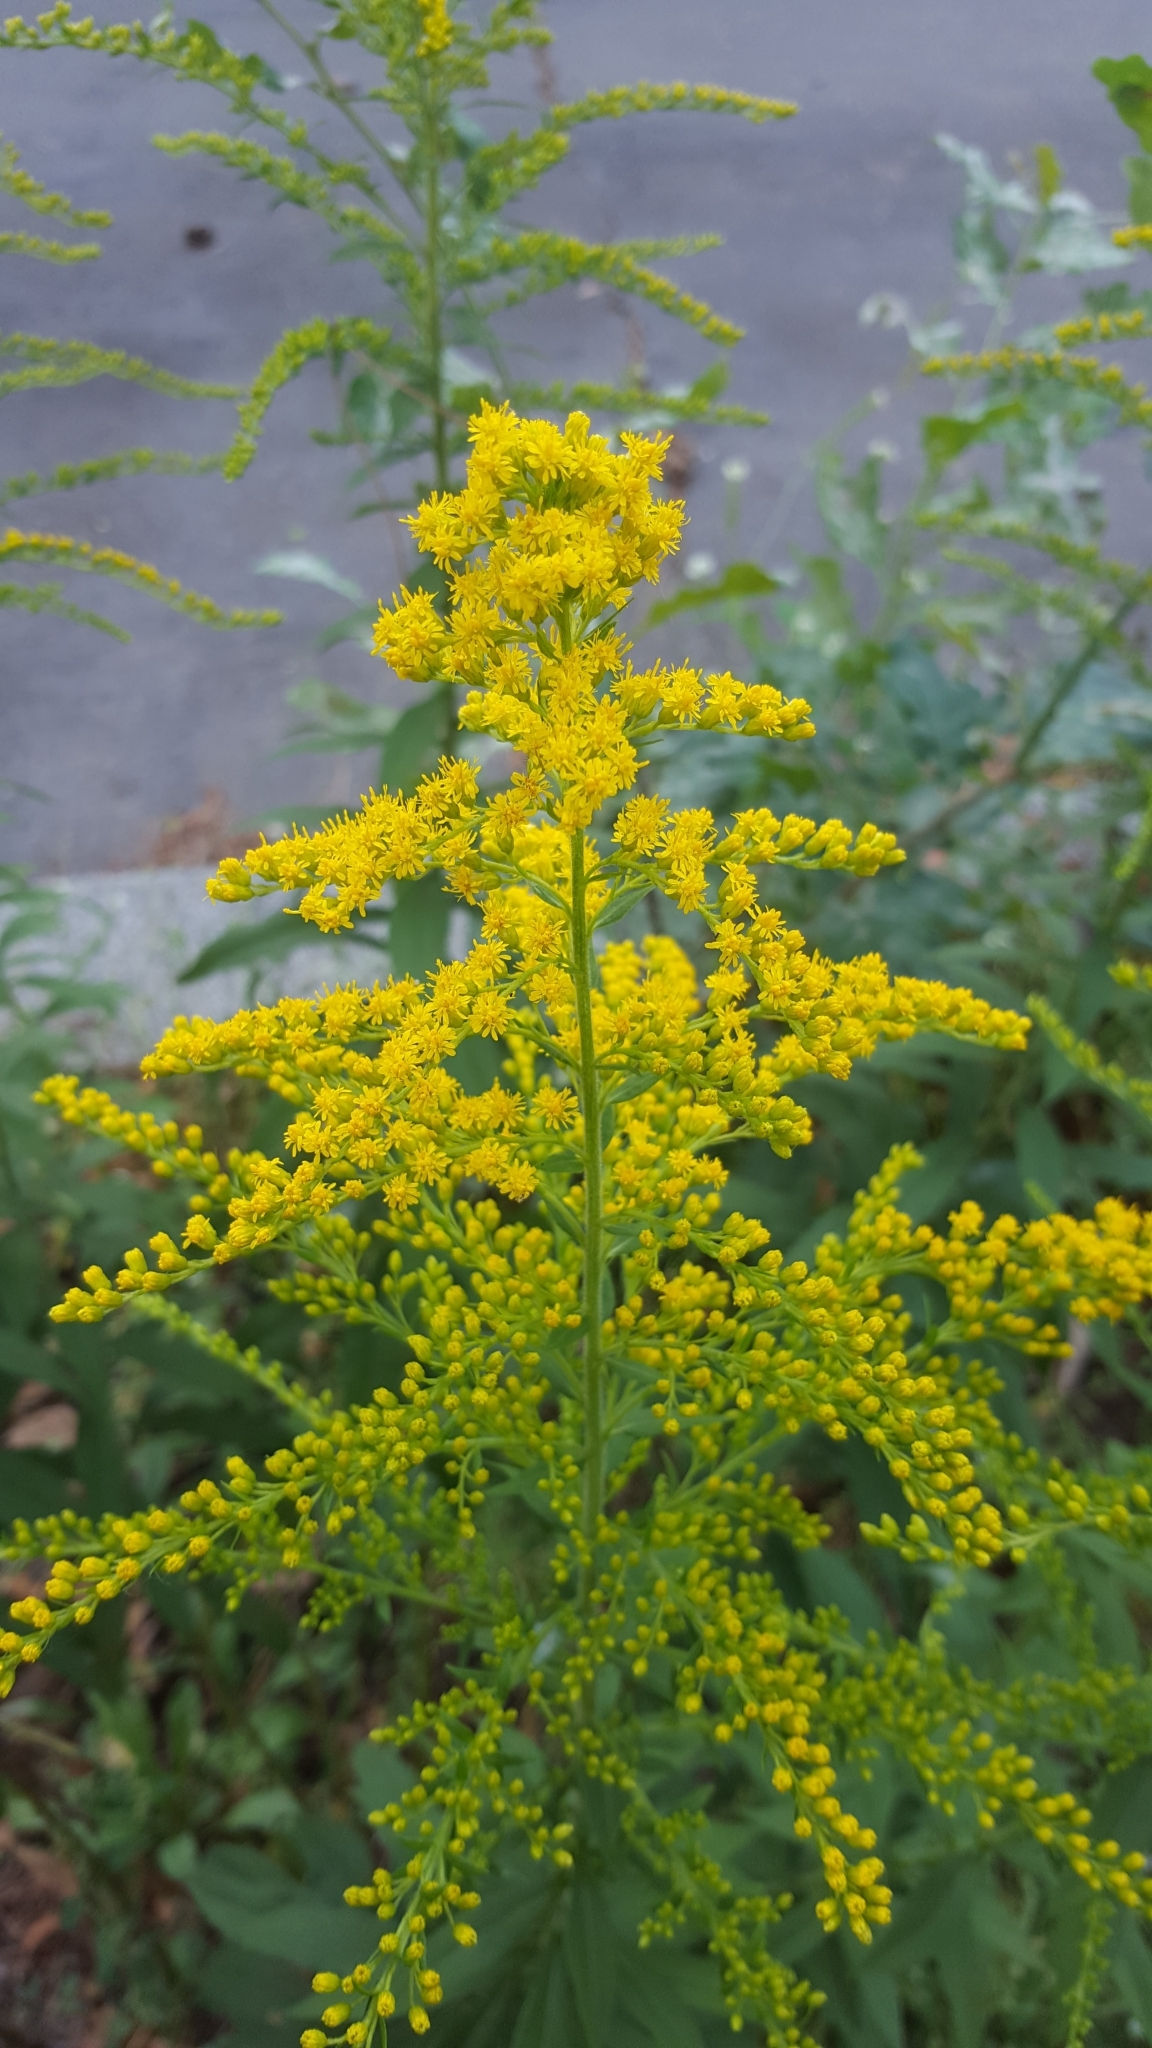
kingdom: Plantae
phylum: Tracheophyta
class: Magnoliopsida
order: Asterales
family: Asteraceae
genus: Solidago
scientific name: Solidago canadensis
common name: Canada goldenrod
